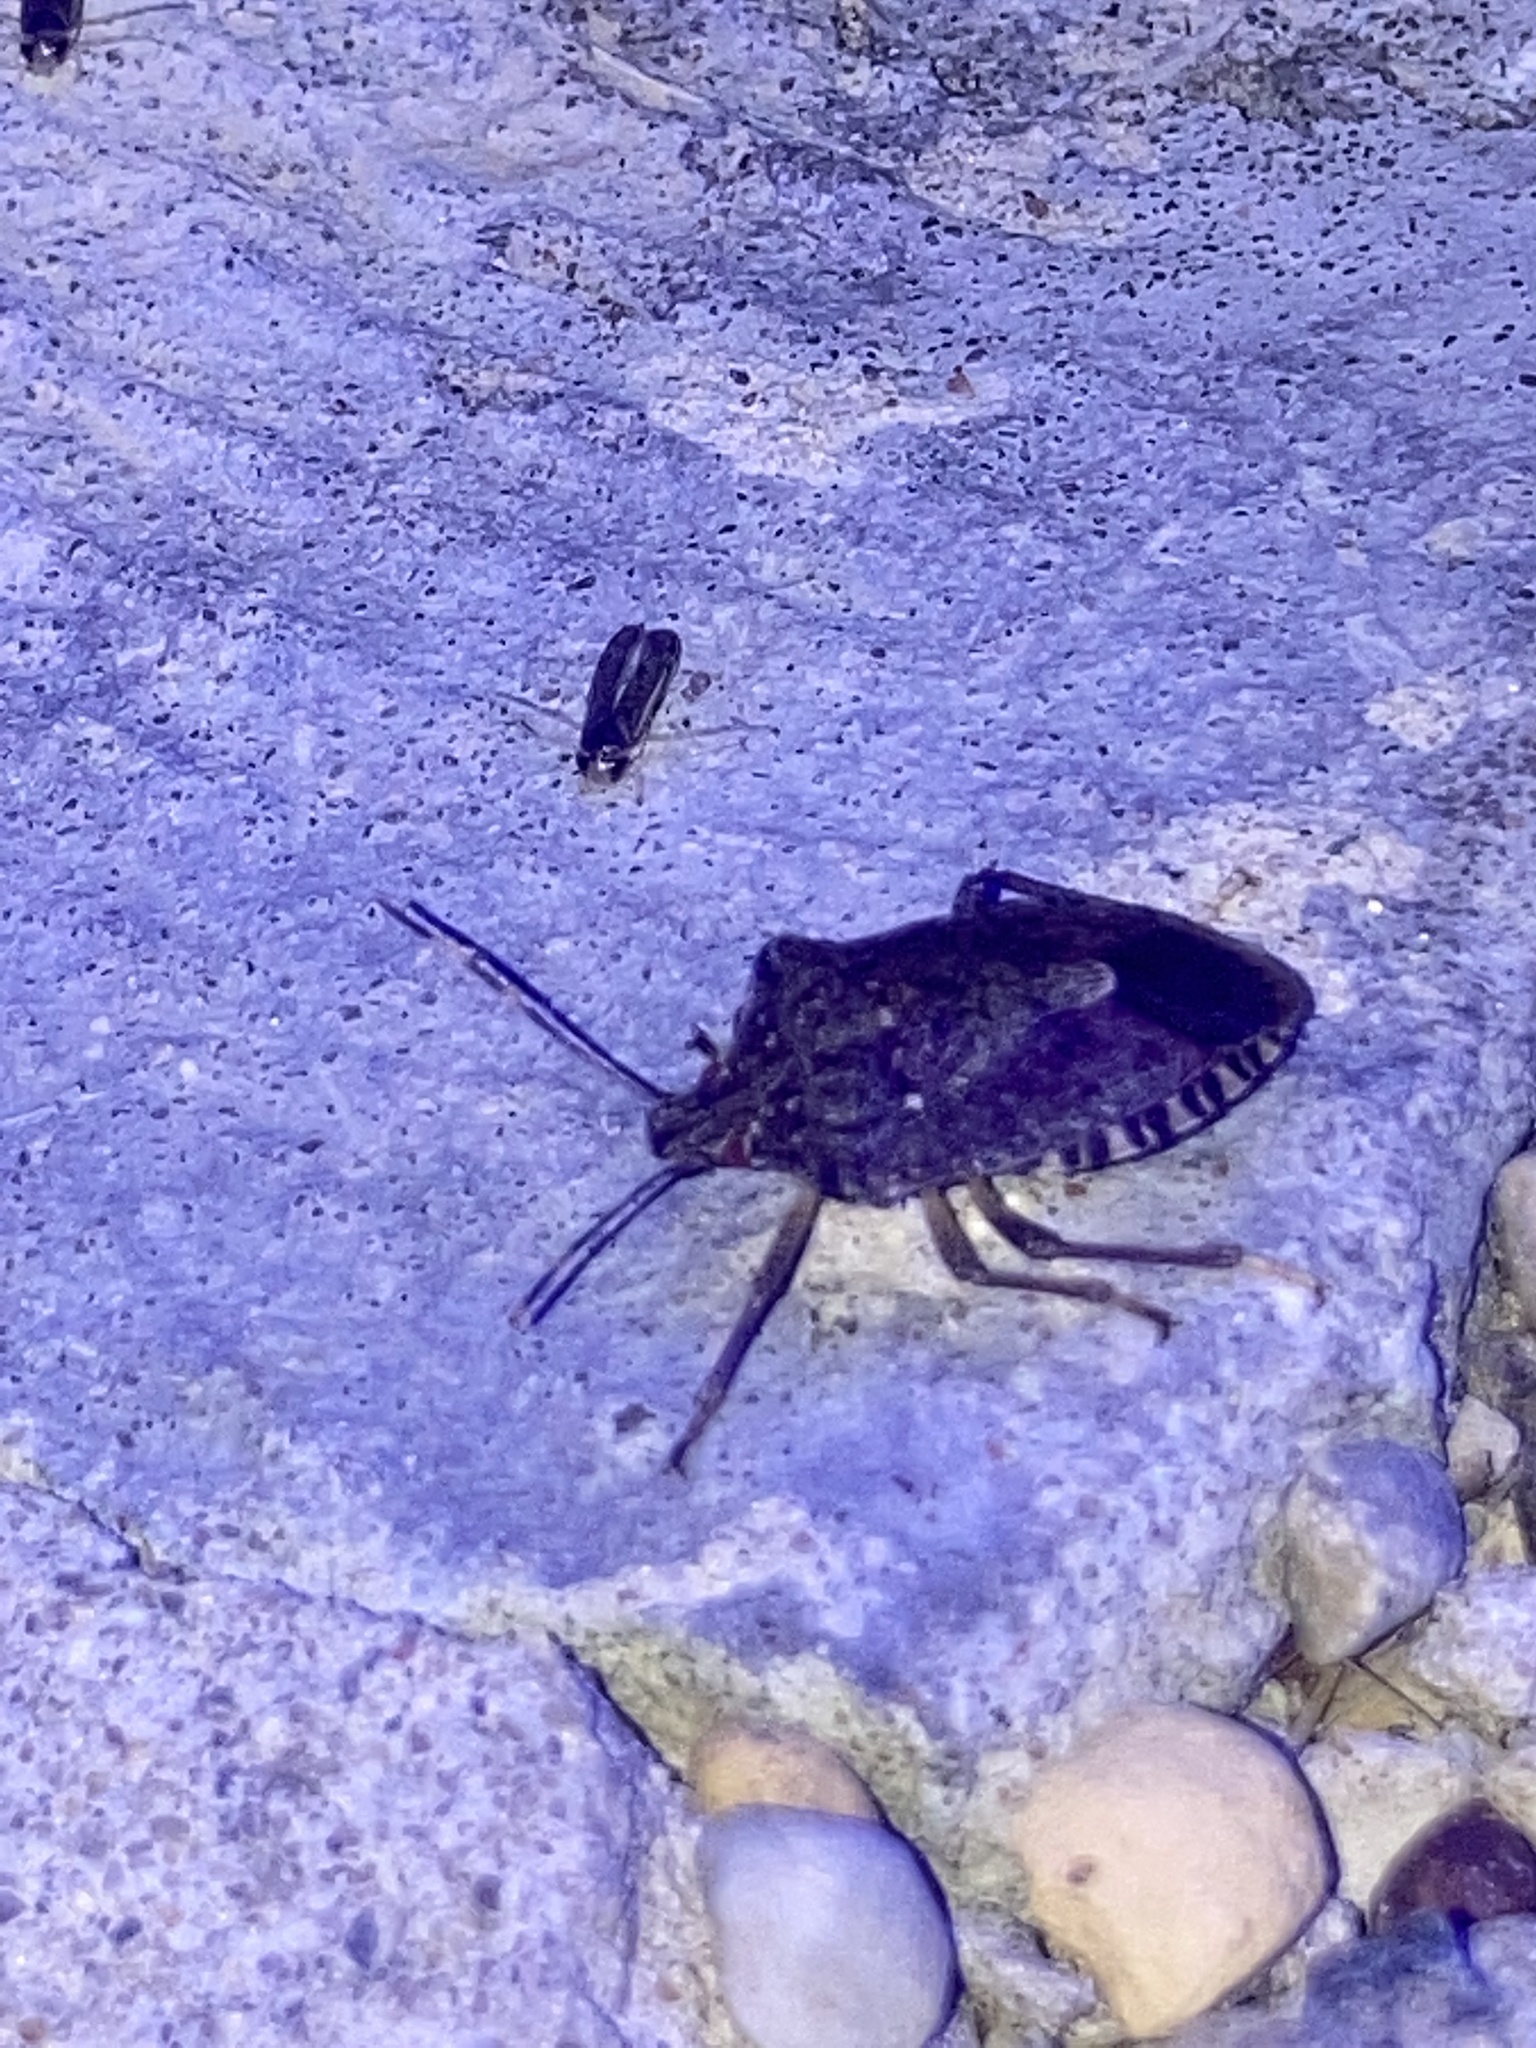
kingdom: Animalia
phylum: Arthropoda
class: Insecta
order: Hemiptera
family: Pentatomidae
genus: Halyomorpha
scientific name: Halyomorpha halys
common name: Brown marmorated stink bug
